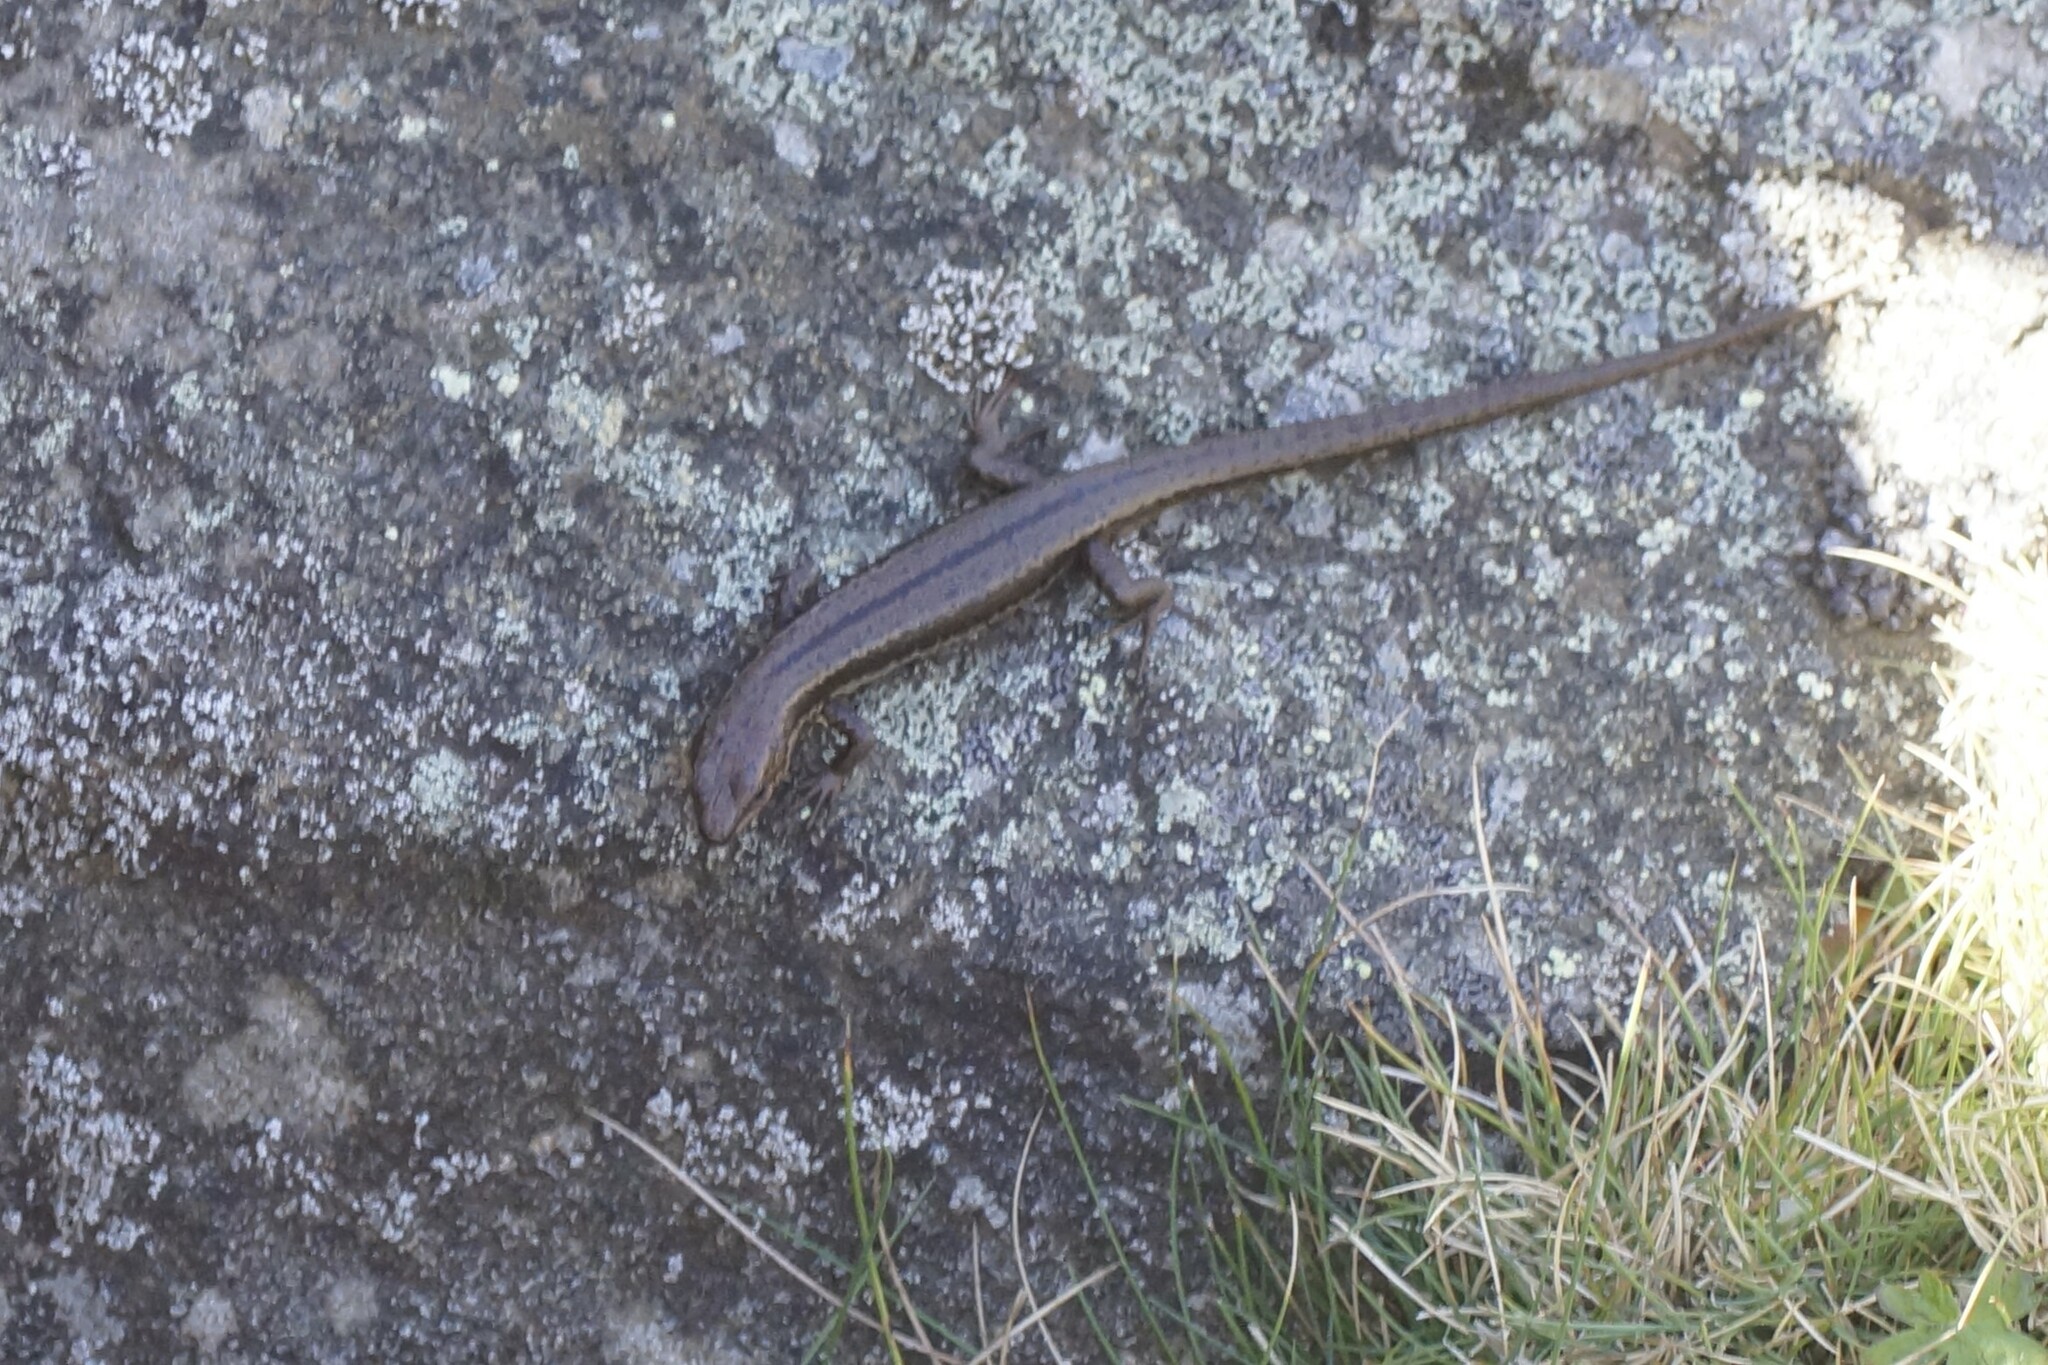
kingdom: Animalia
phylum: Chordata
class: Squamata
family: Scincidae
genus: Carinascincus
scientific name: Carinascincus pretiosus
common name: Agile cool-skink
